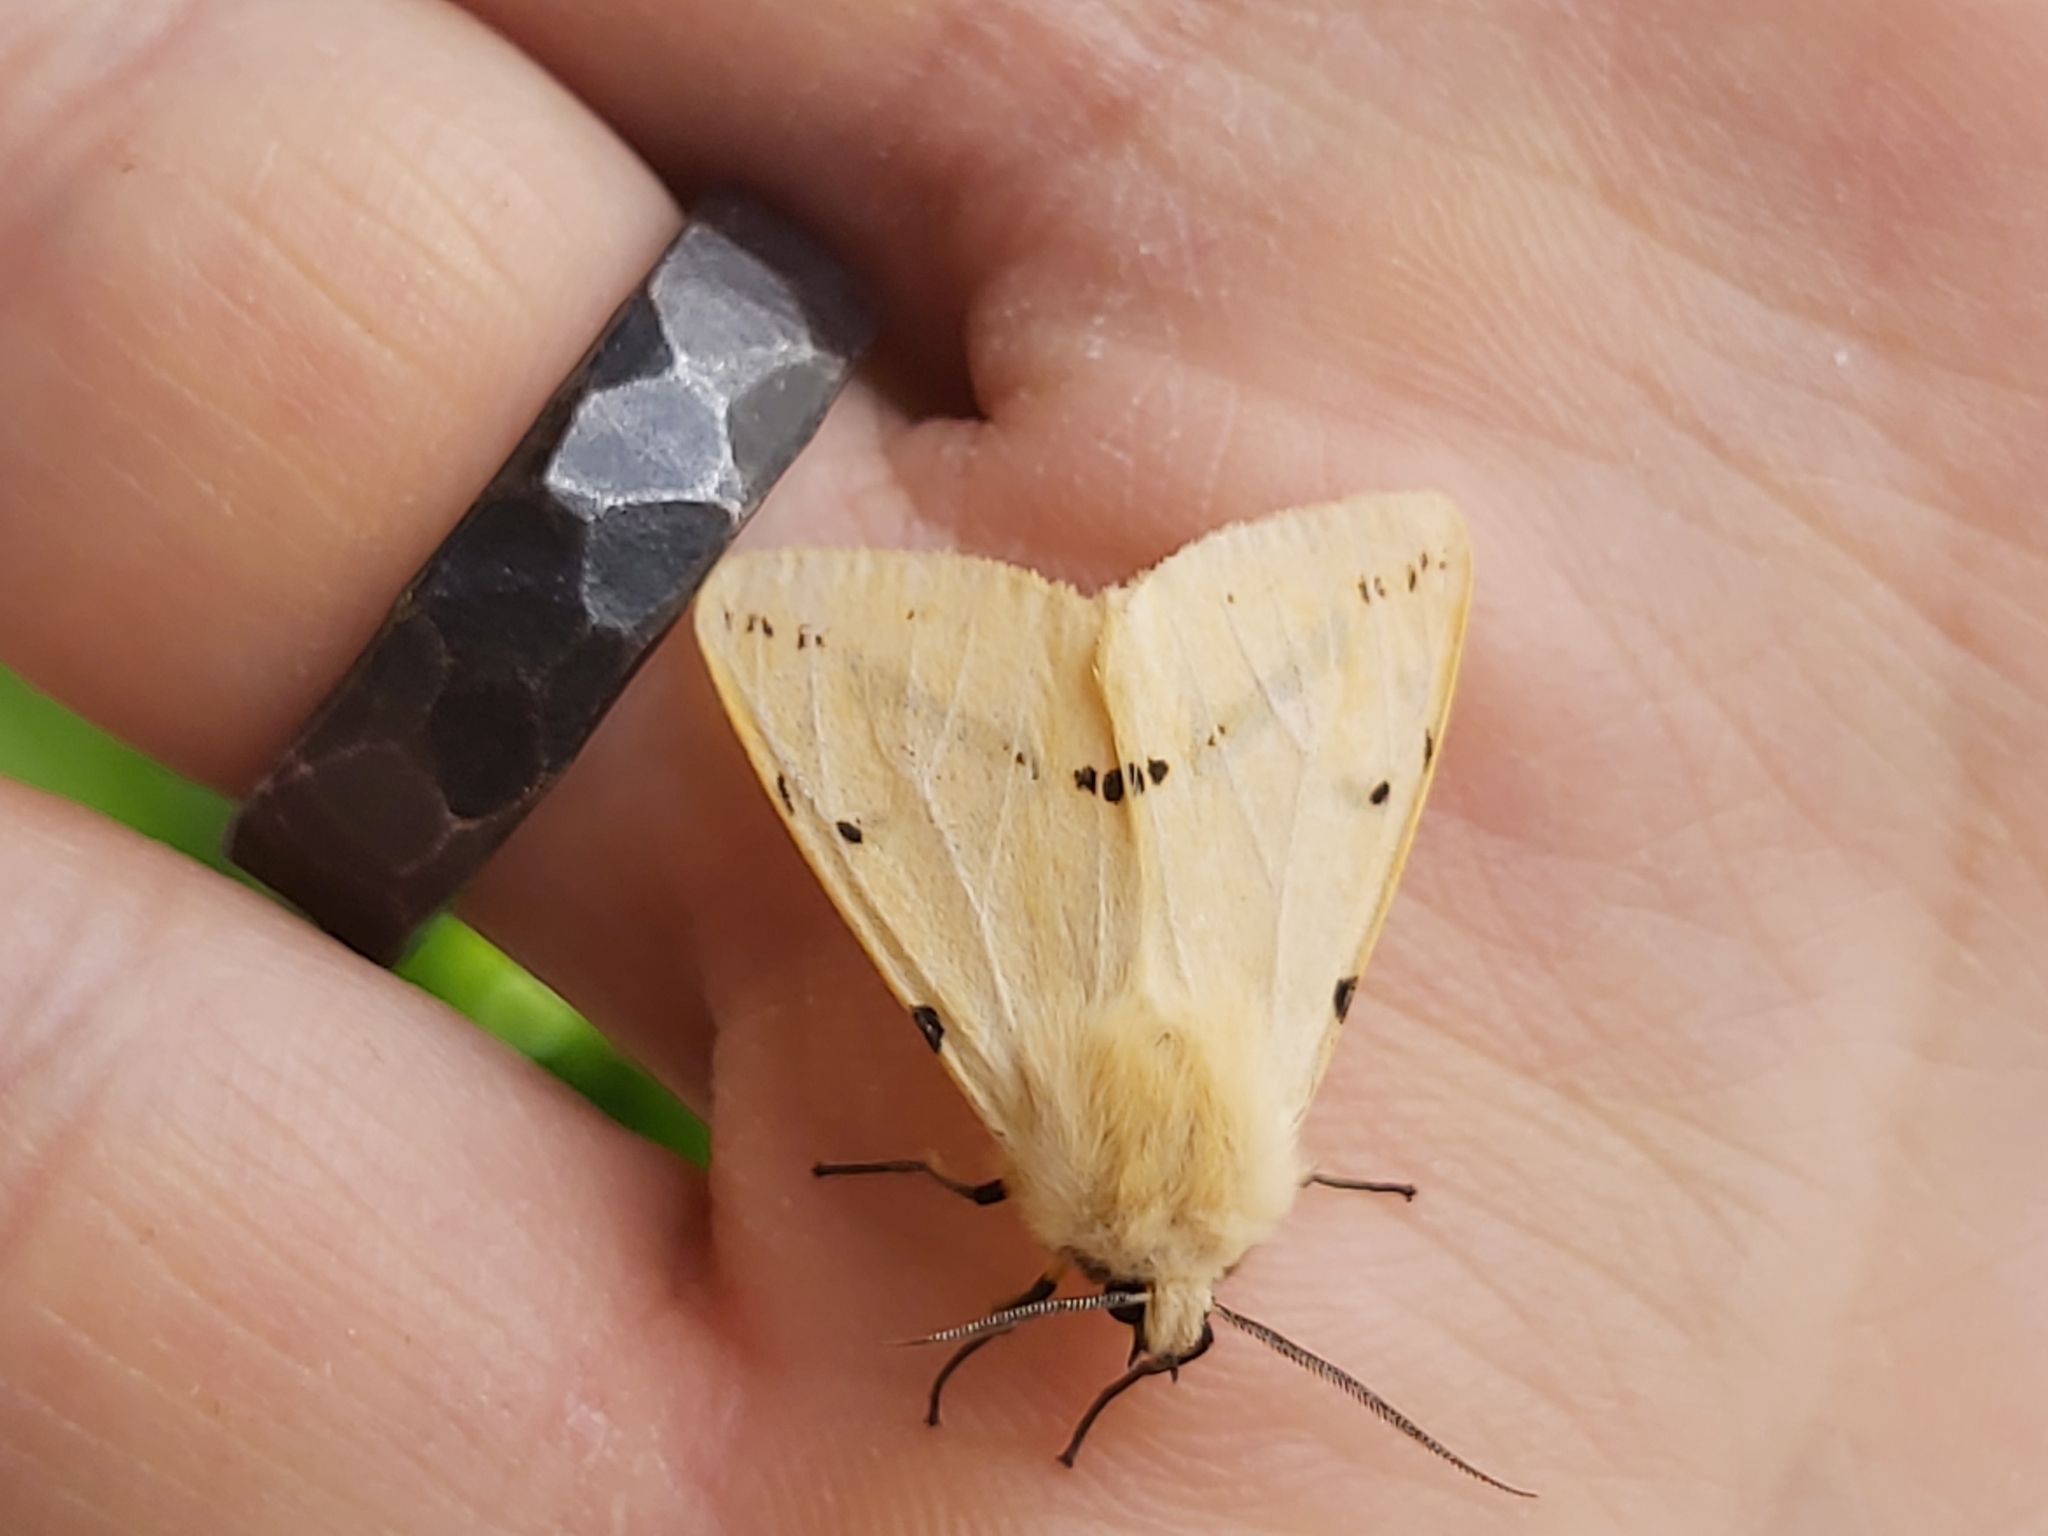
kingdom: Animalia
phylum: Arthropoda
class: Insecta
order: Lepidoptera
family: Erebidae
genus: Spilarctia
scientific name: Spilarctia lutea
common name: Buff ermine
